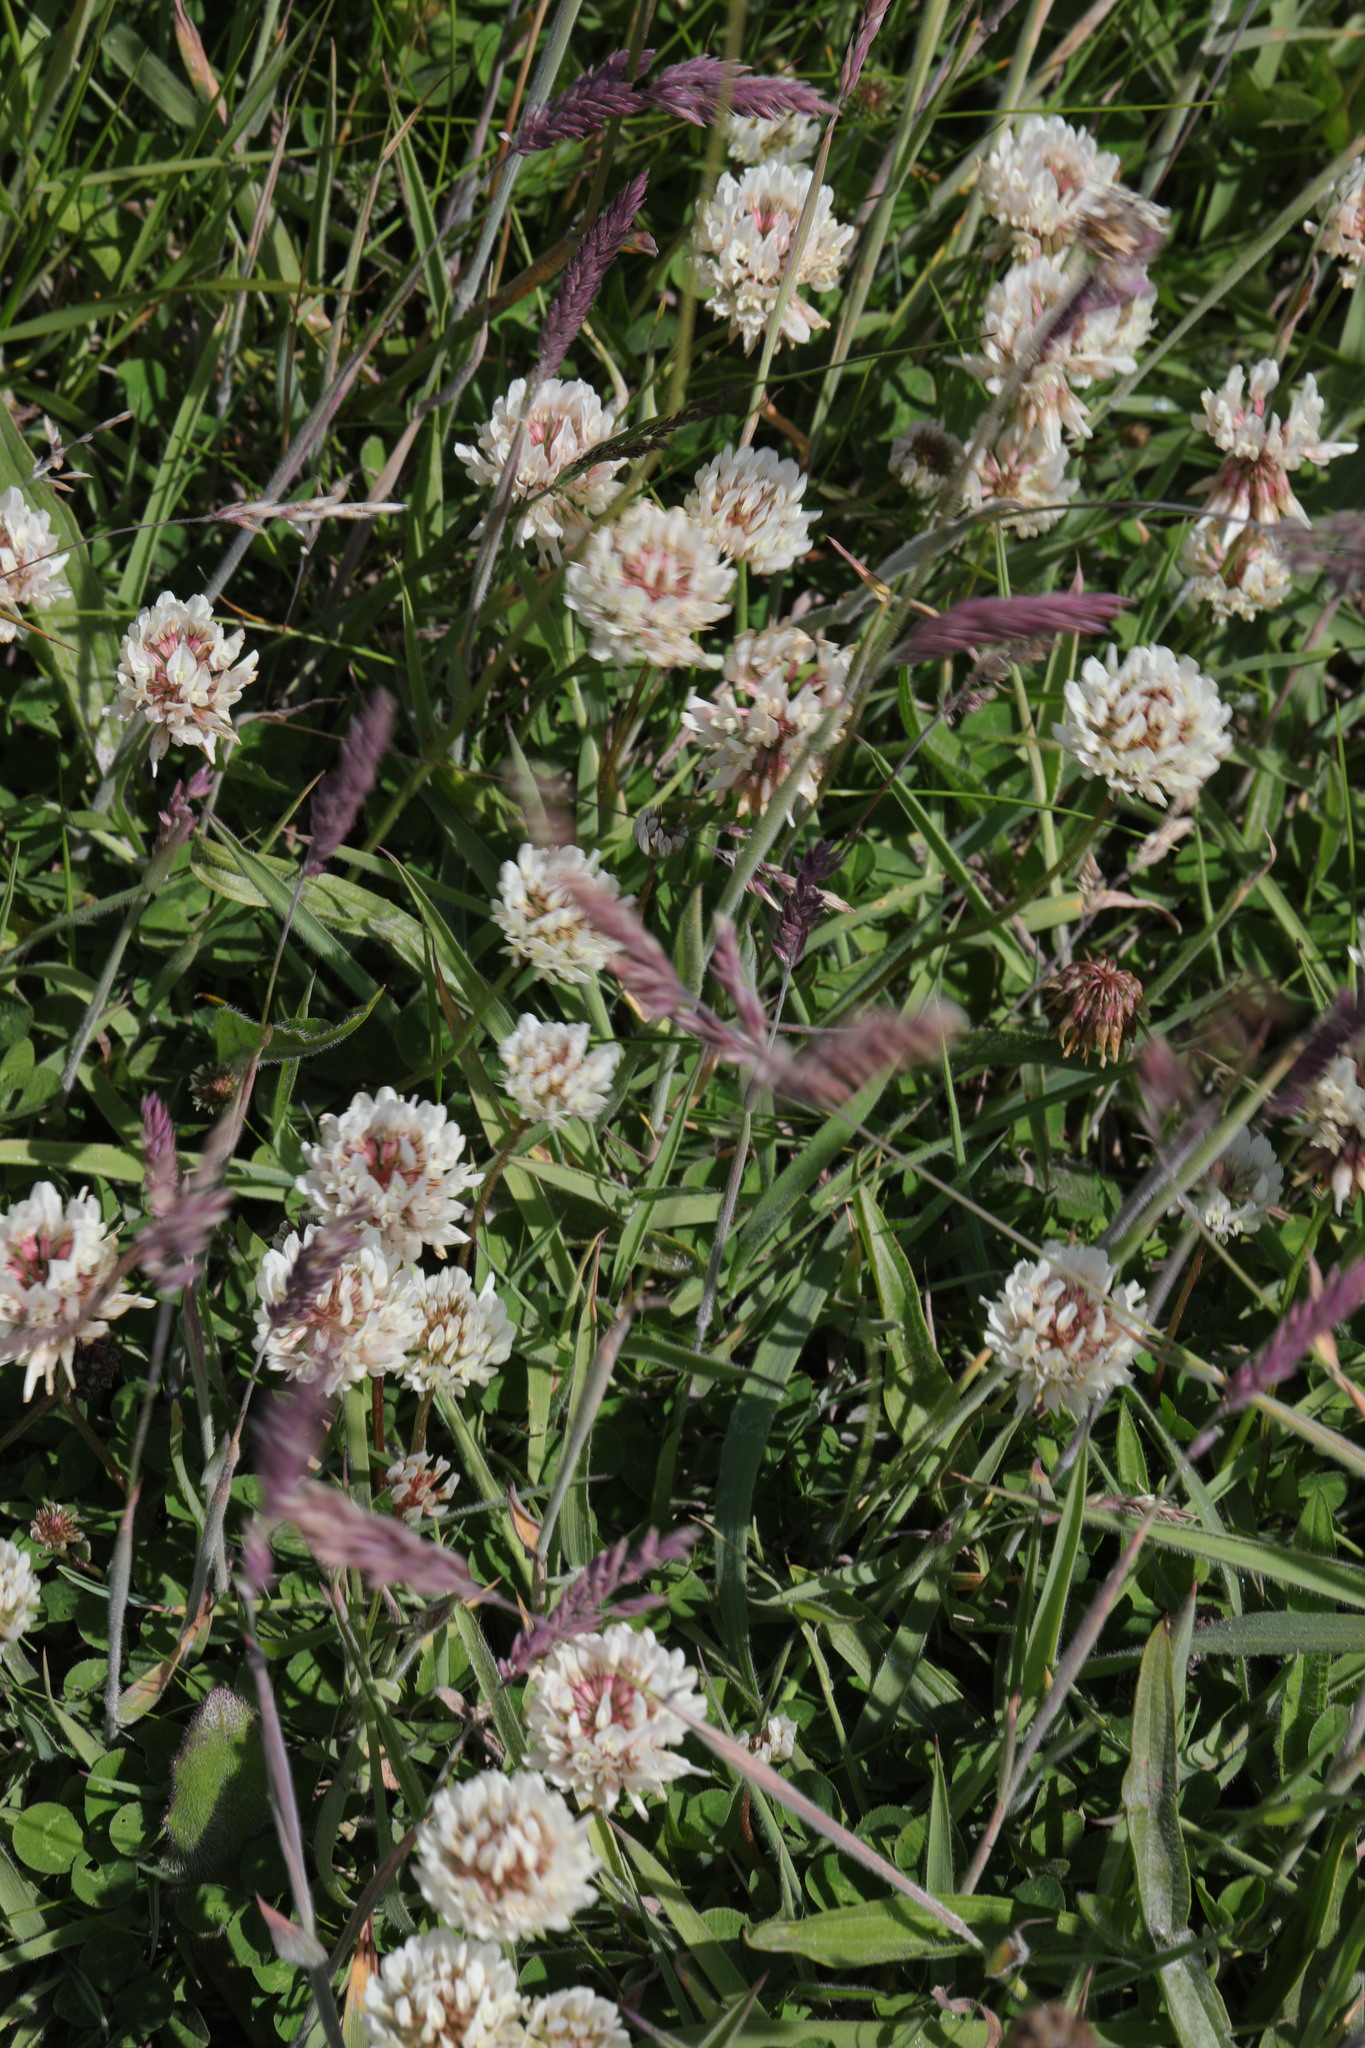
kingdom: Plantae
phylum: Tracheophyta
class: Magnoliopsida
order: Fabales
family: Fabaceae
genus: Trifolium
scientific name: Trifolium repens
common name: White clover
